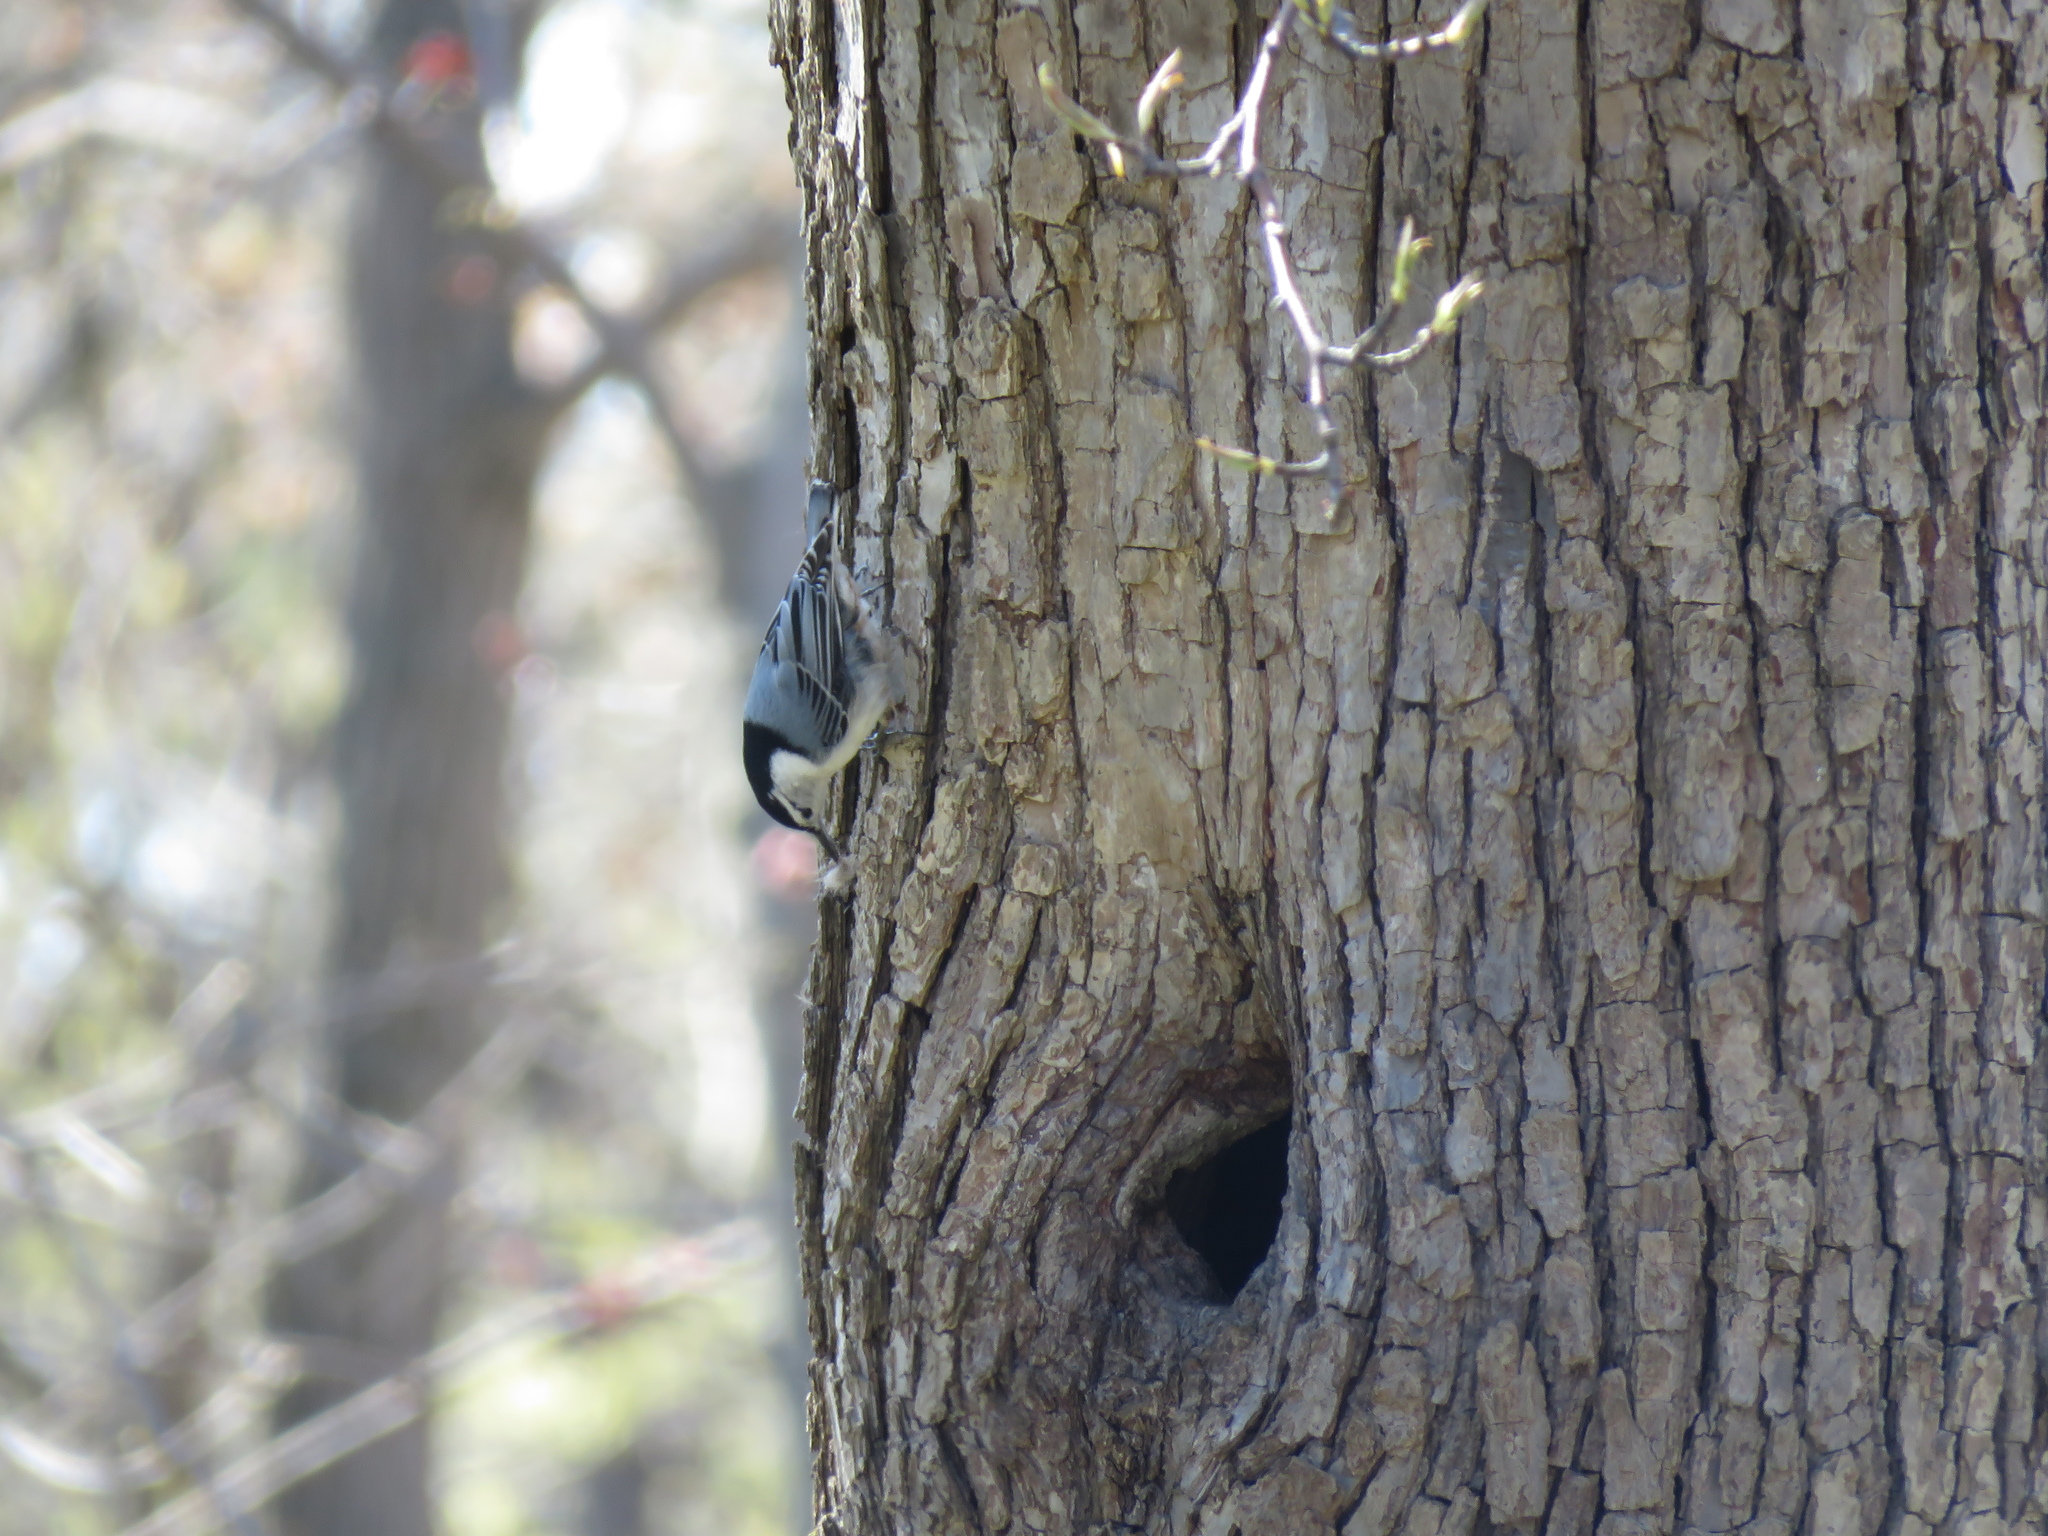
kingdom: Animalia
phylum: Chordata
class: Aves
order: Passeriformes
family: Sittidae
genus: Sitta
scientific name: Sitta carolinensis
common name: White-breasted nuthatch
